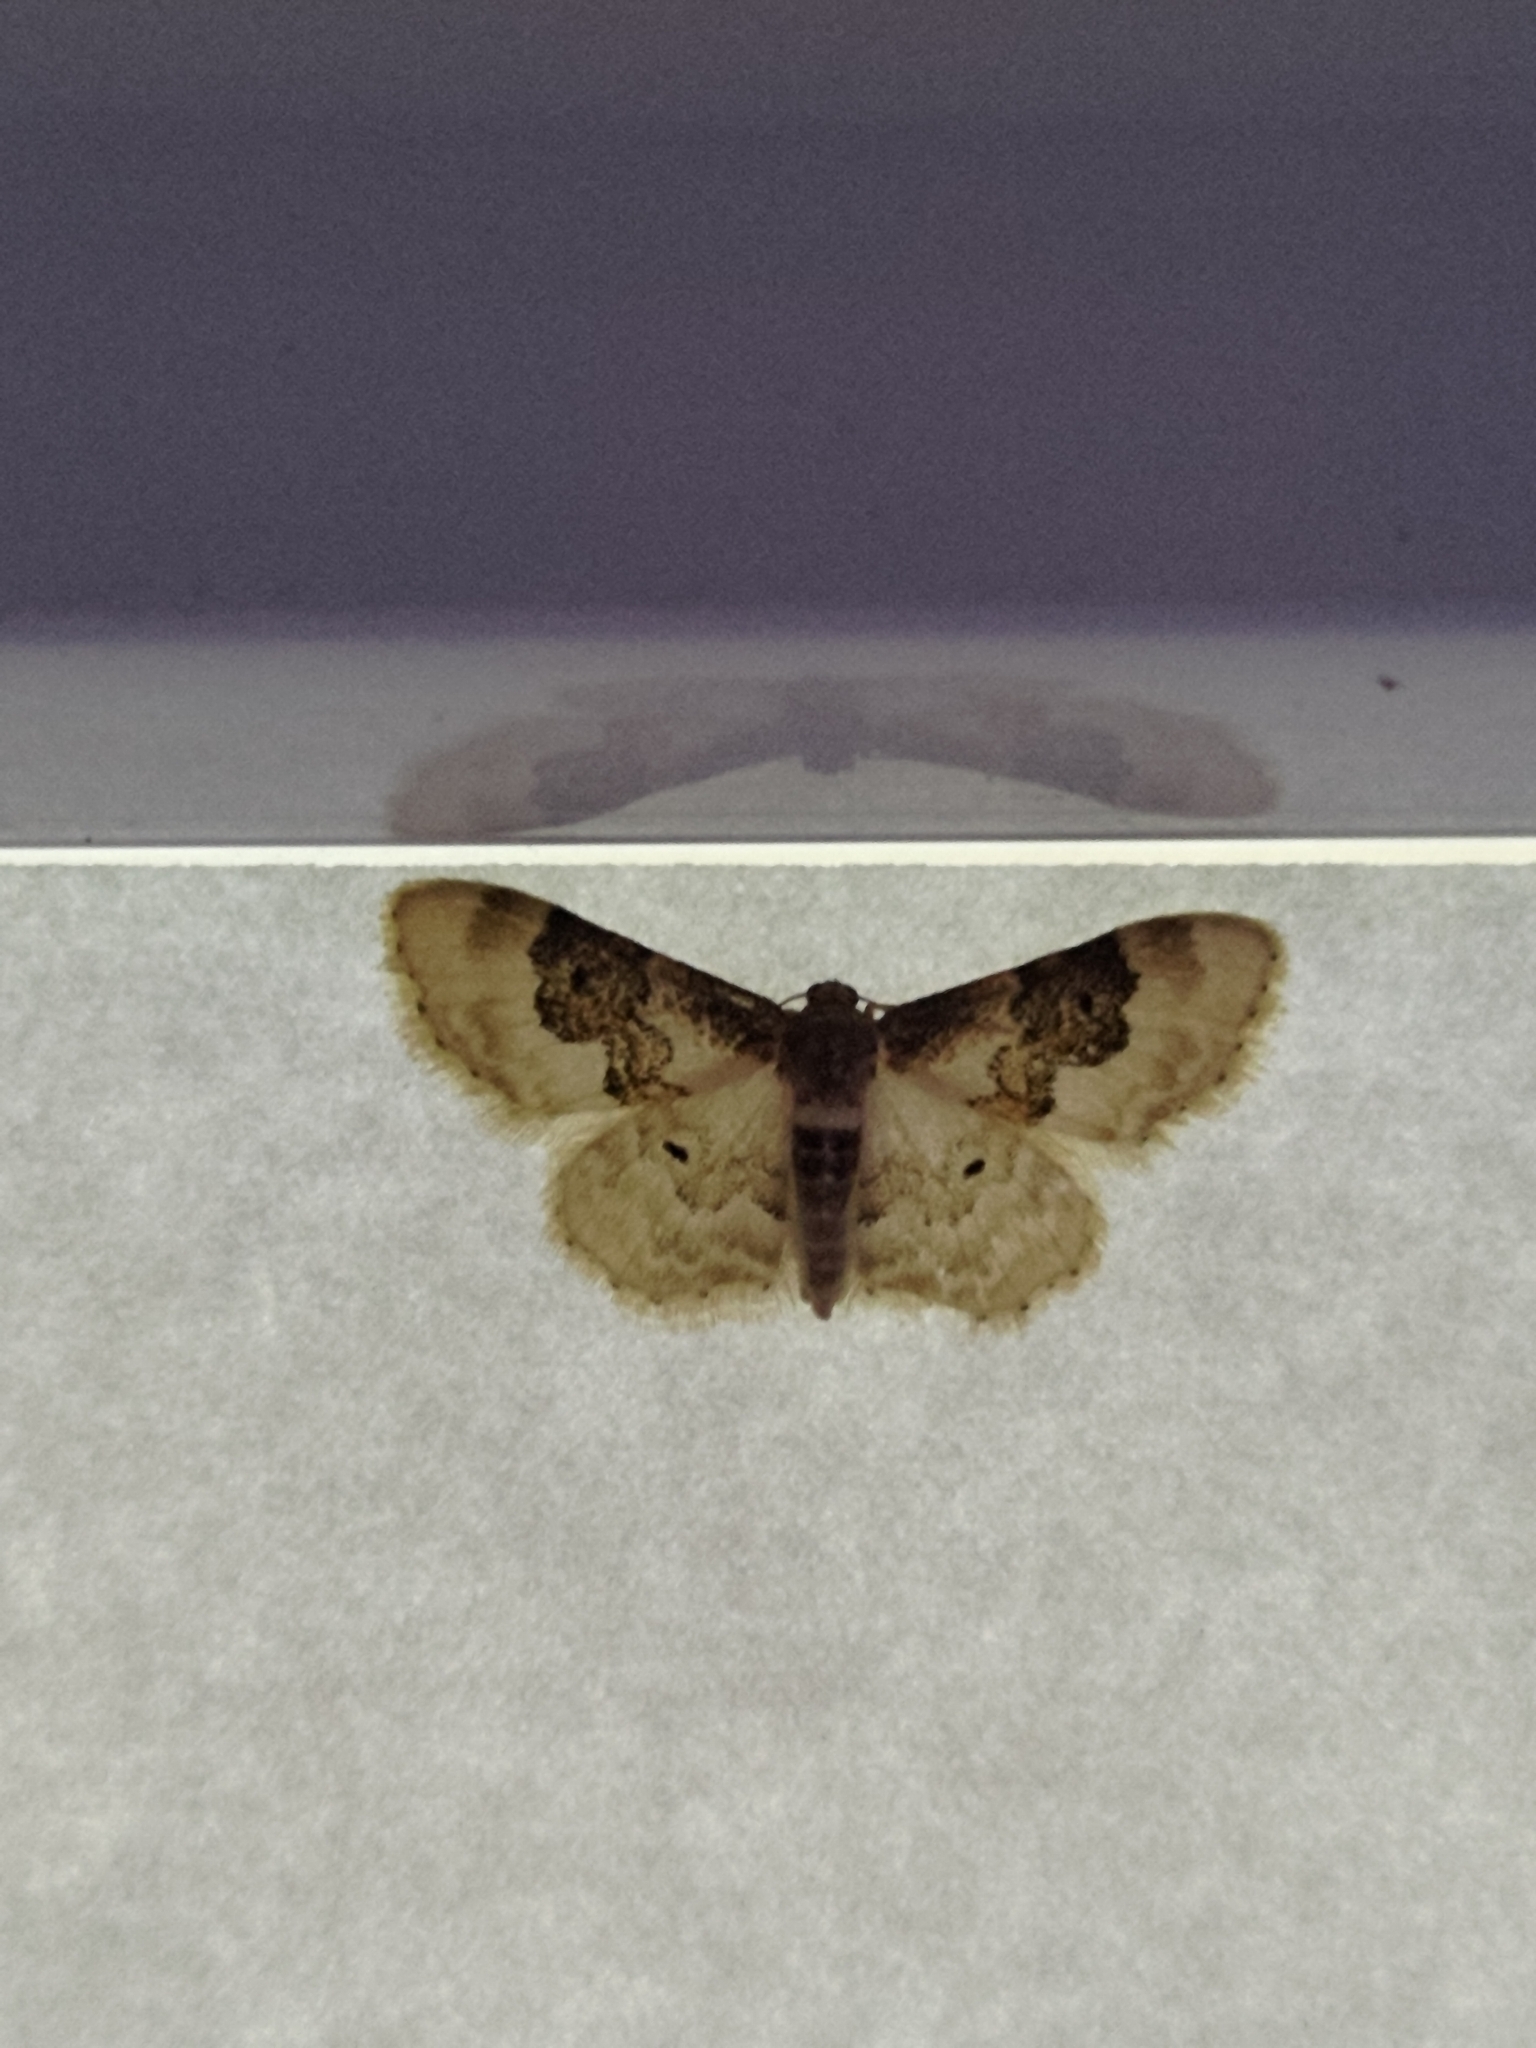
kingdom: Animalia
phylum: Arthropoda
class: Insecta
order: Lepidoptera
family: Geometridae
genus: Idaea
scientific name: Idaea rusticata
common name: Least carpet
